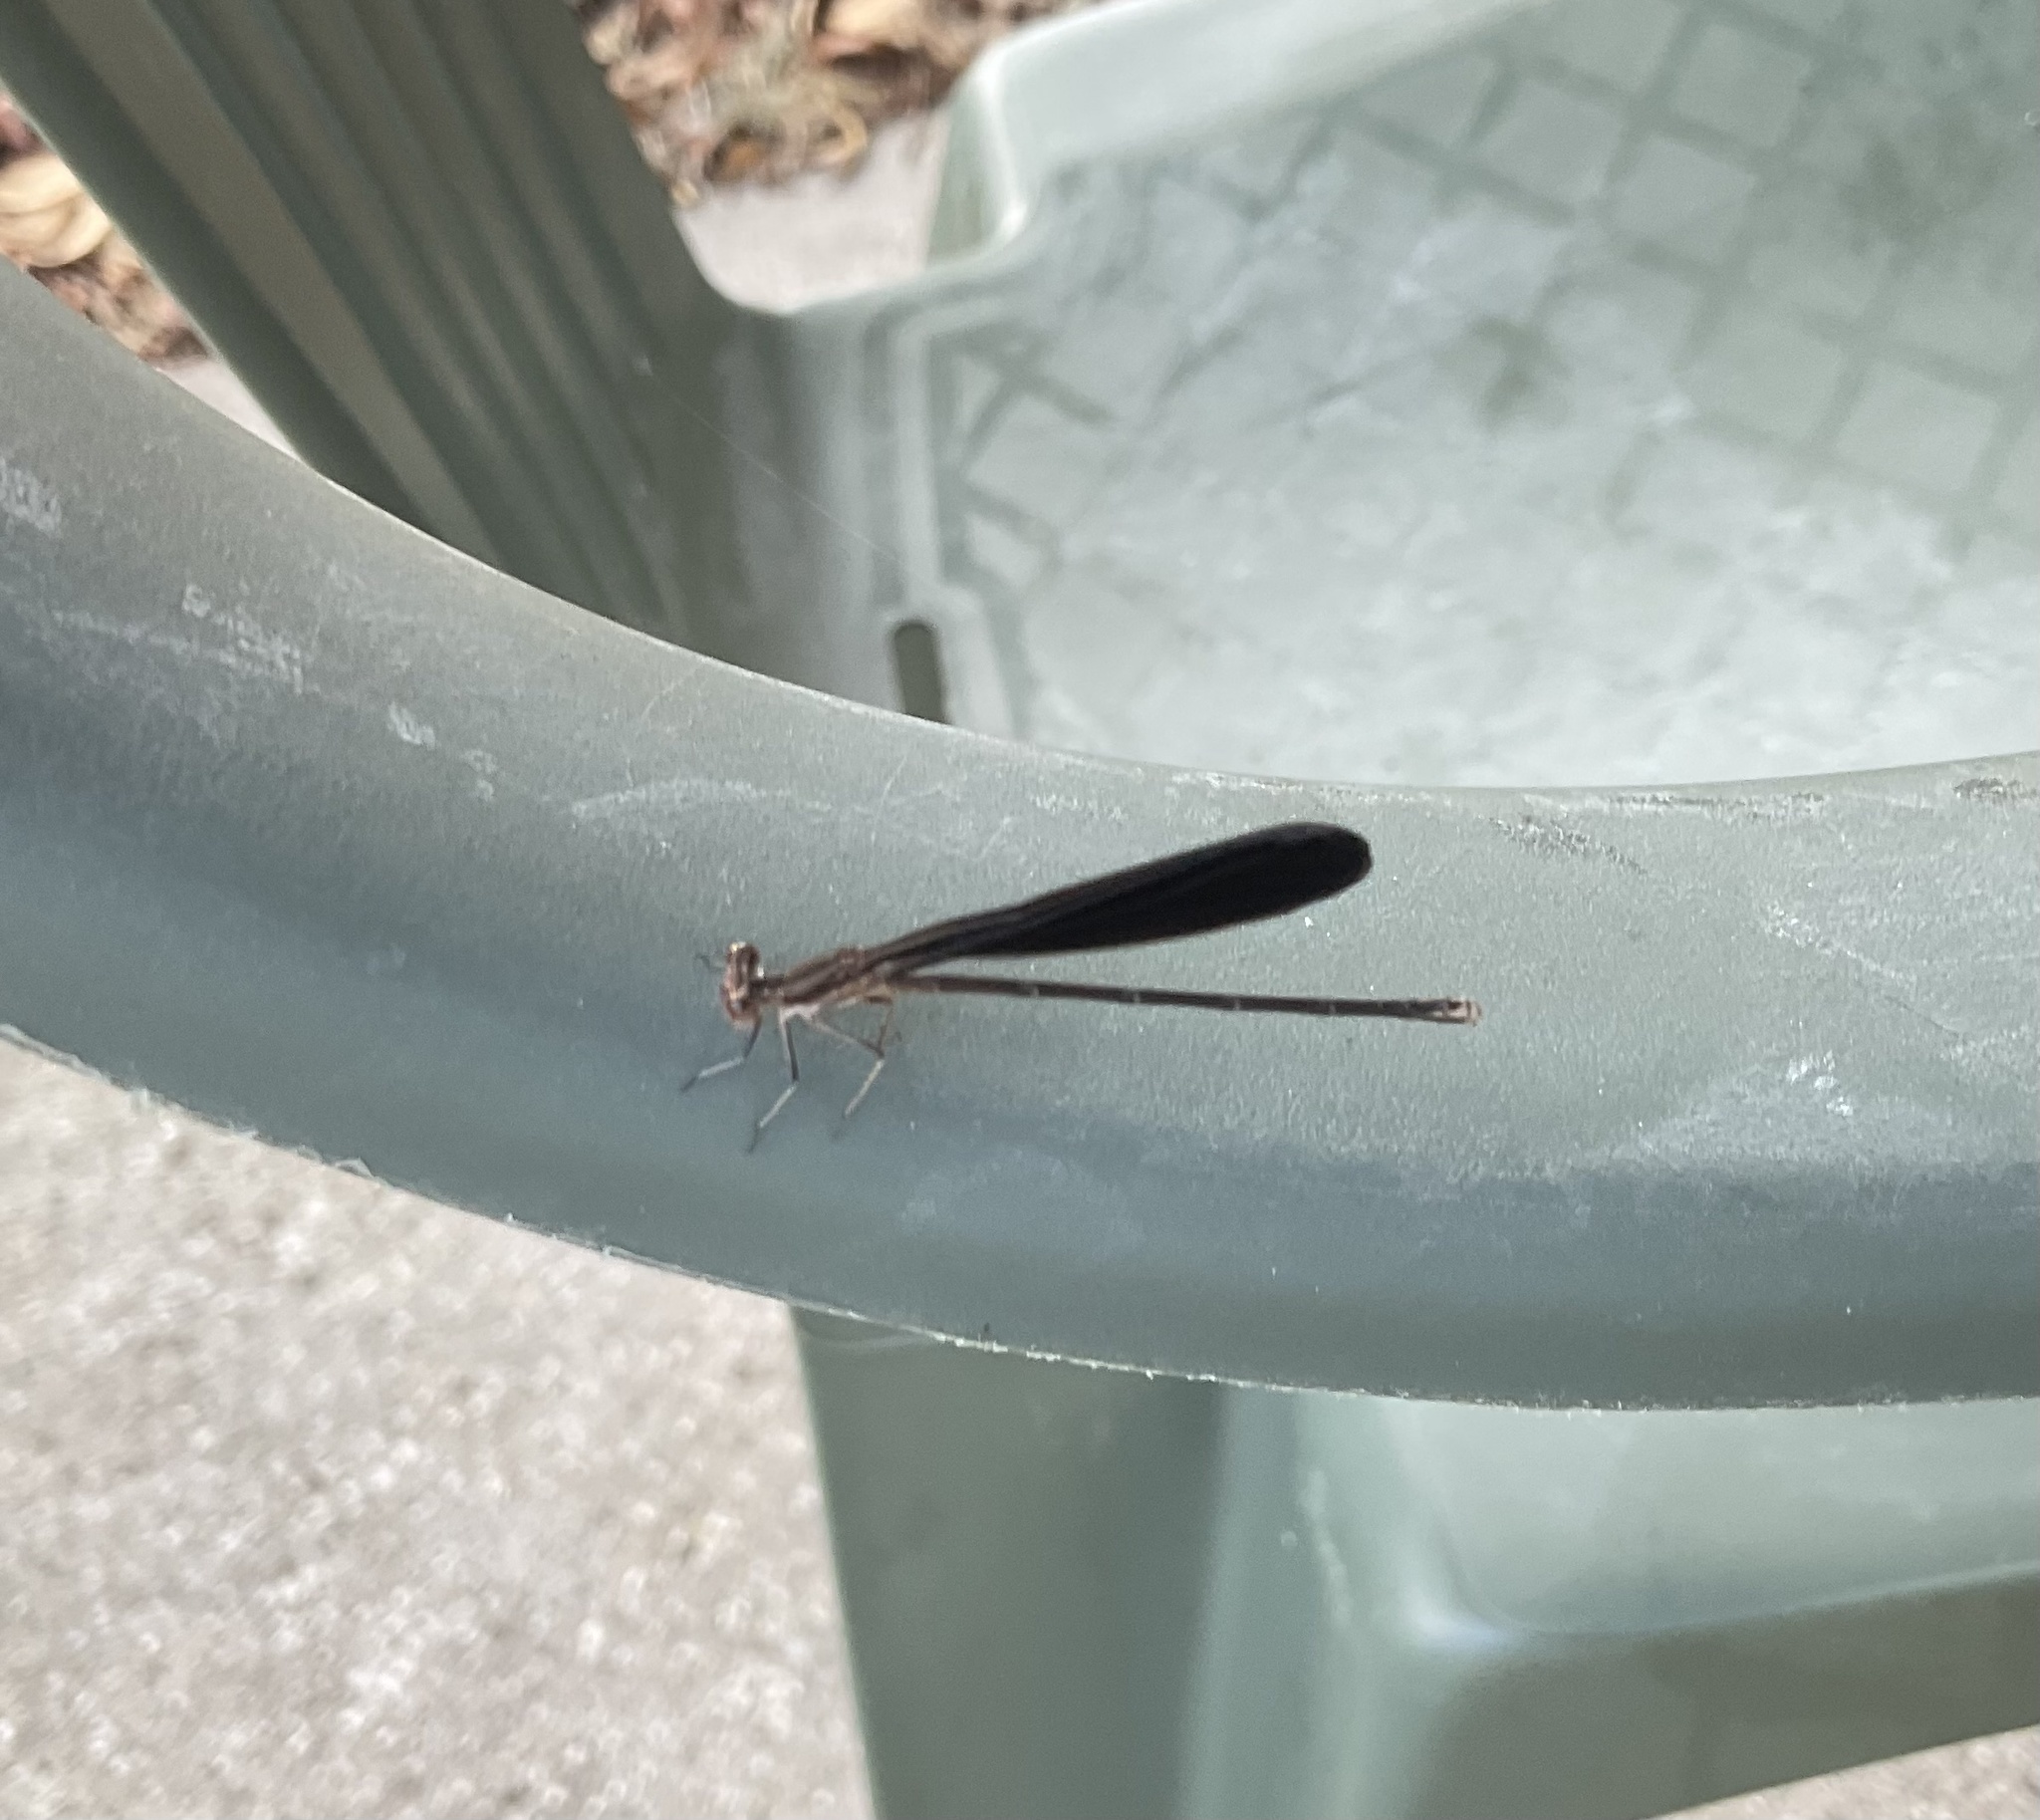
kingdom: Animalia
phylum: Arthropoda
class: Insecta
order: Odonata
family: Coenagrionidae
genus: Argia
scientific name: Argia fumipennis
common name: Variable dancer
